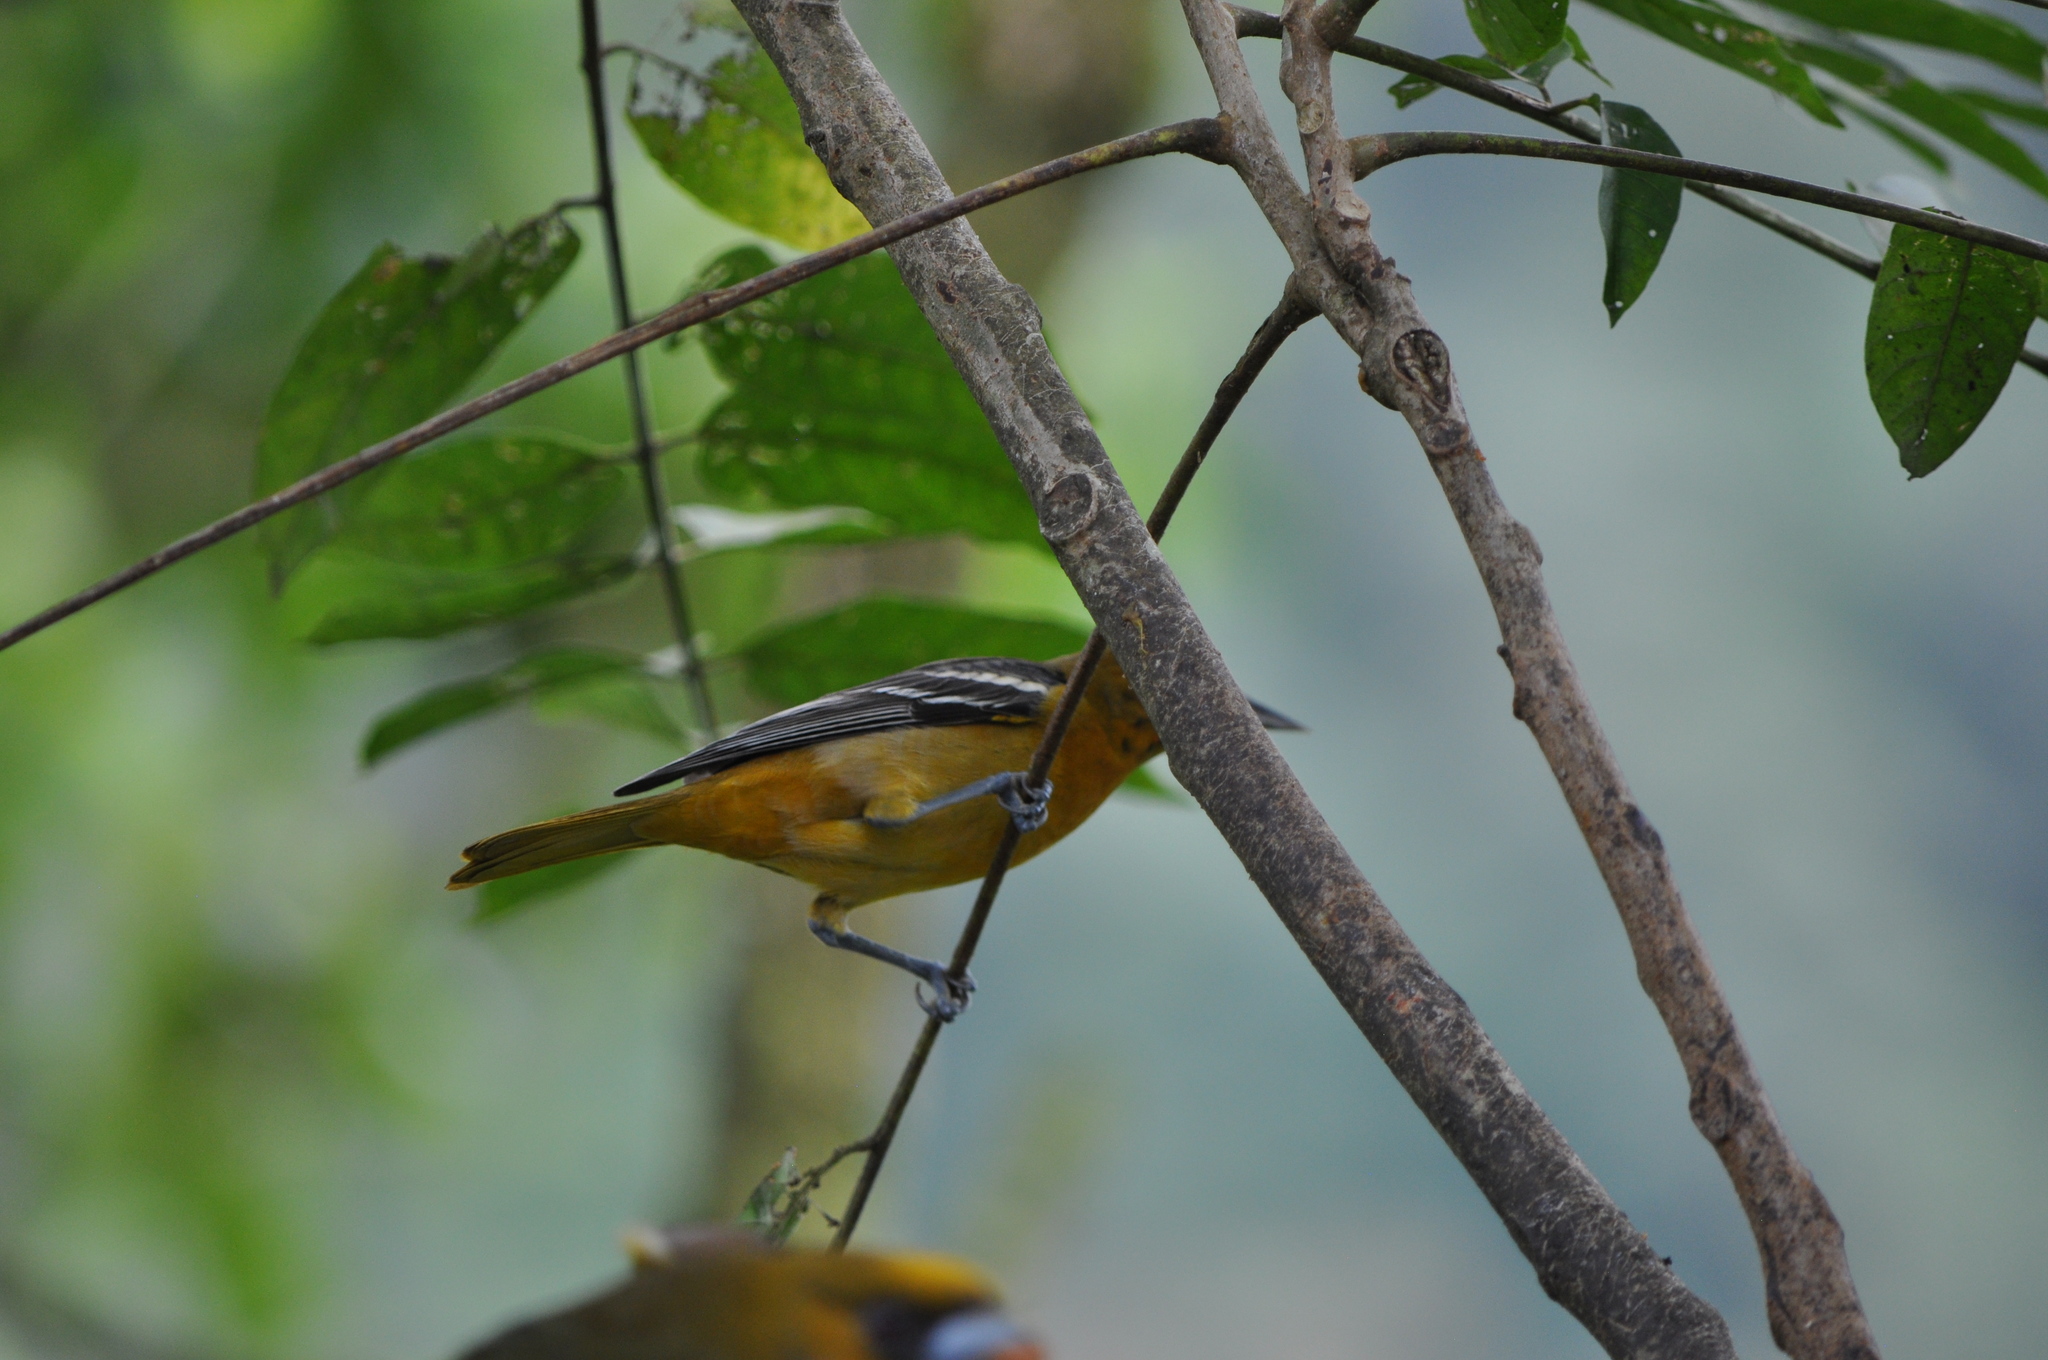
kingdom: Animalia
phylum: Chordata
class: Aves
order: Passeriformes
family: Icteridae
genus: Icterus
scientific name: Icterus galbula
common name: Baltimore oriole
